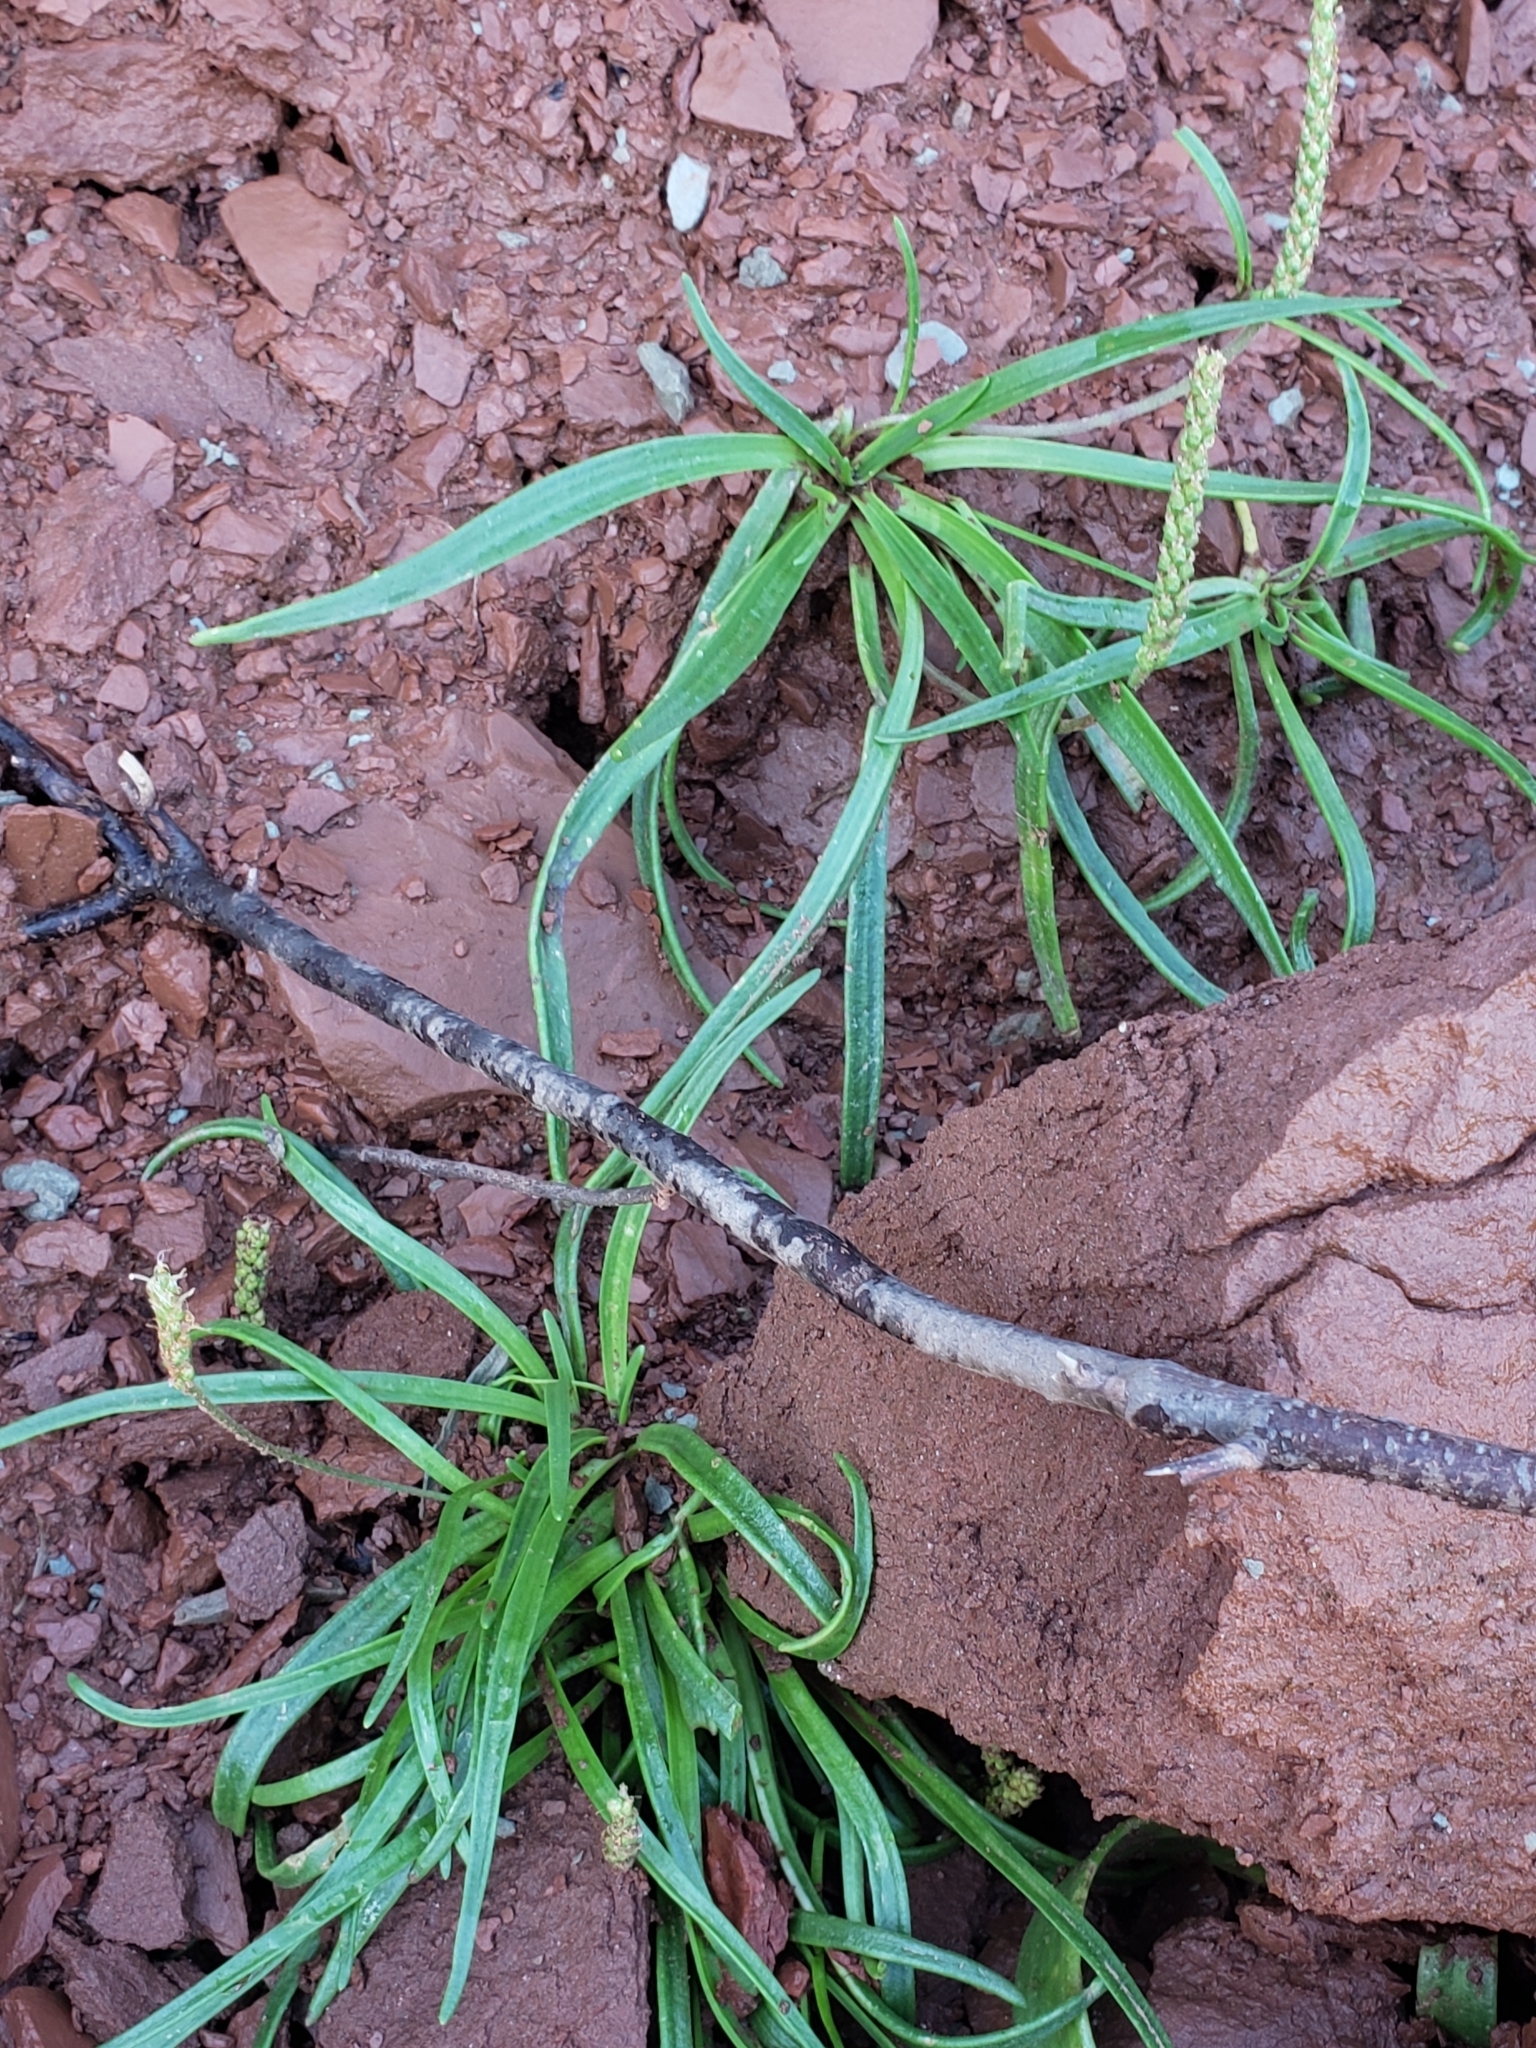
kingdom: Plantae
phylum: Tracheophyta
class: Magnoliopsida
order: Lamiales
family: Plantaginaceae
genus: Plantago
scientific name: Plantago maritima
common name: Sea plantain
